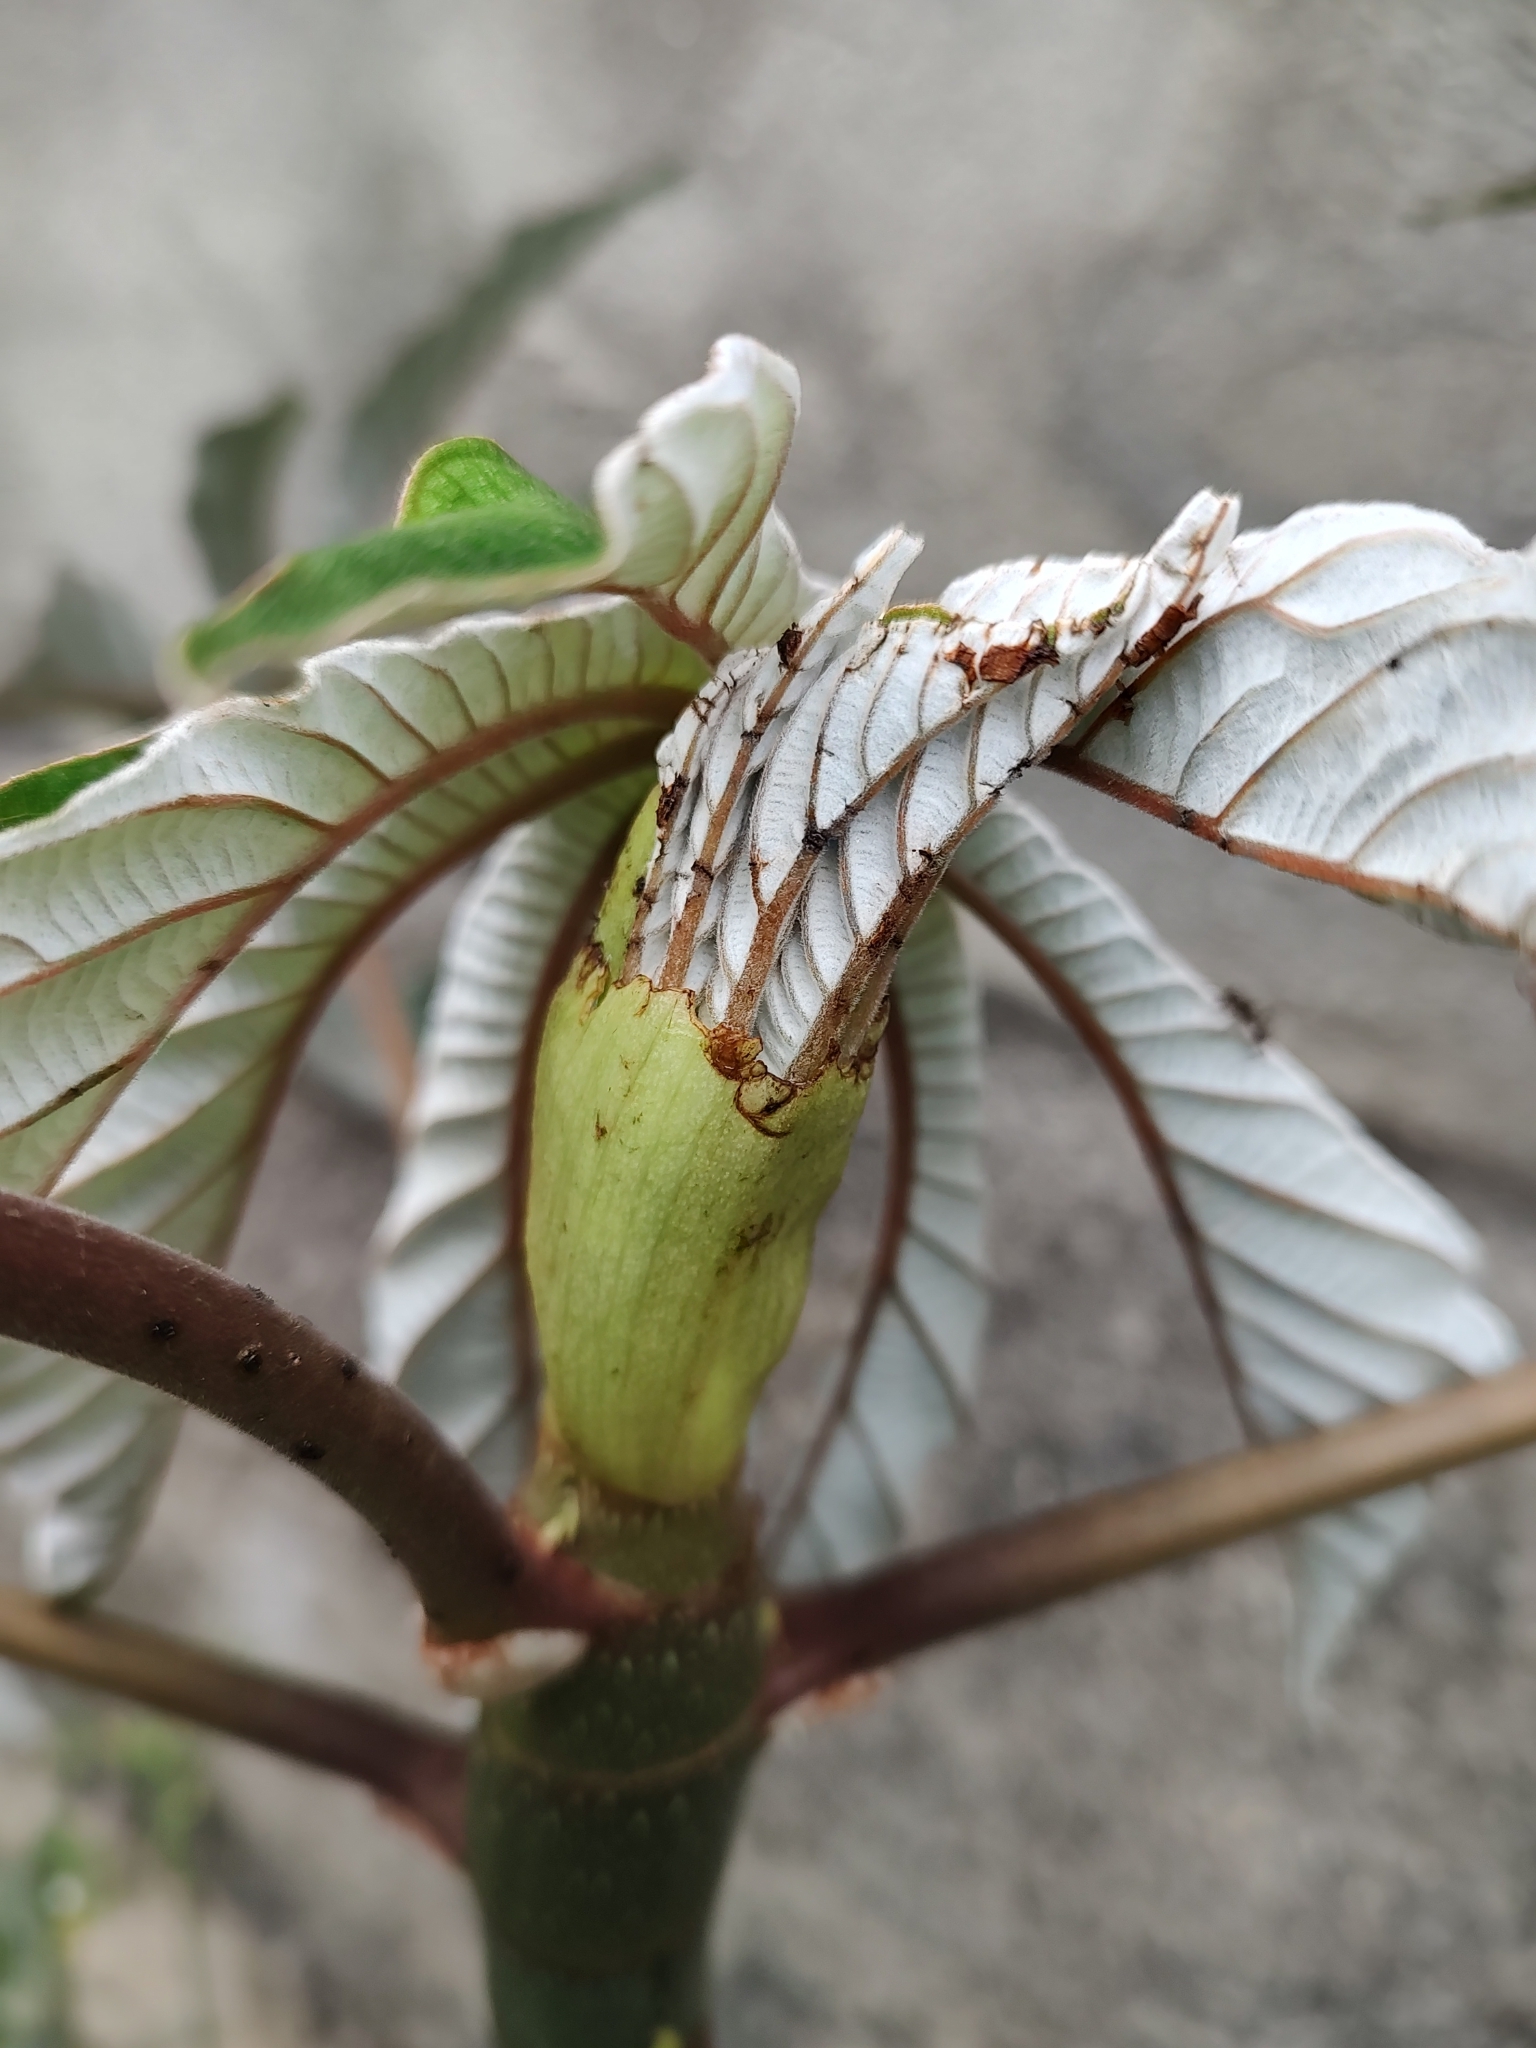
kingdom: Plantae
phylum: Tracheophyta
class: Magnoliopsida
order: Rosales
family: Urticaceae
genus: Cecropia
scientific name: Cecropia pachystachya
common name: Ambay pumpwood
